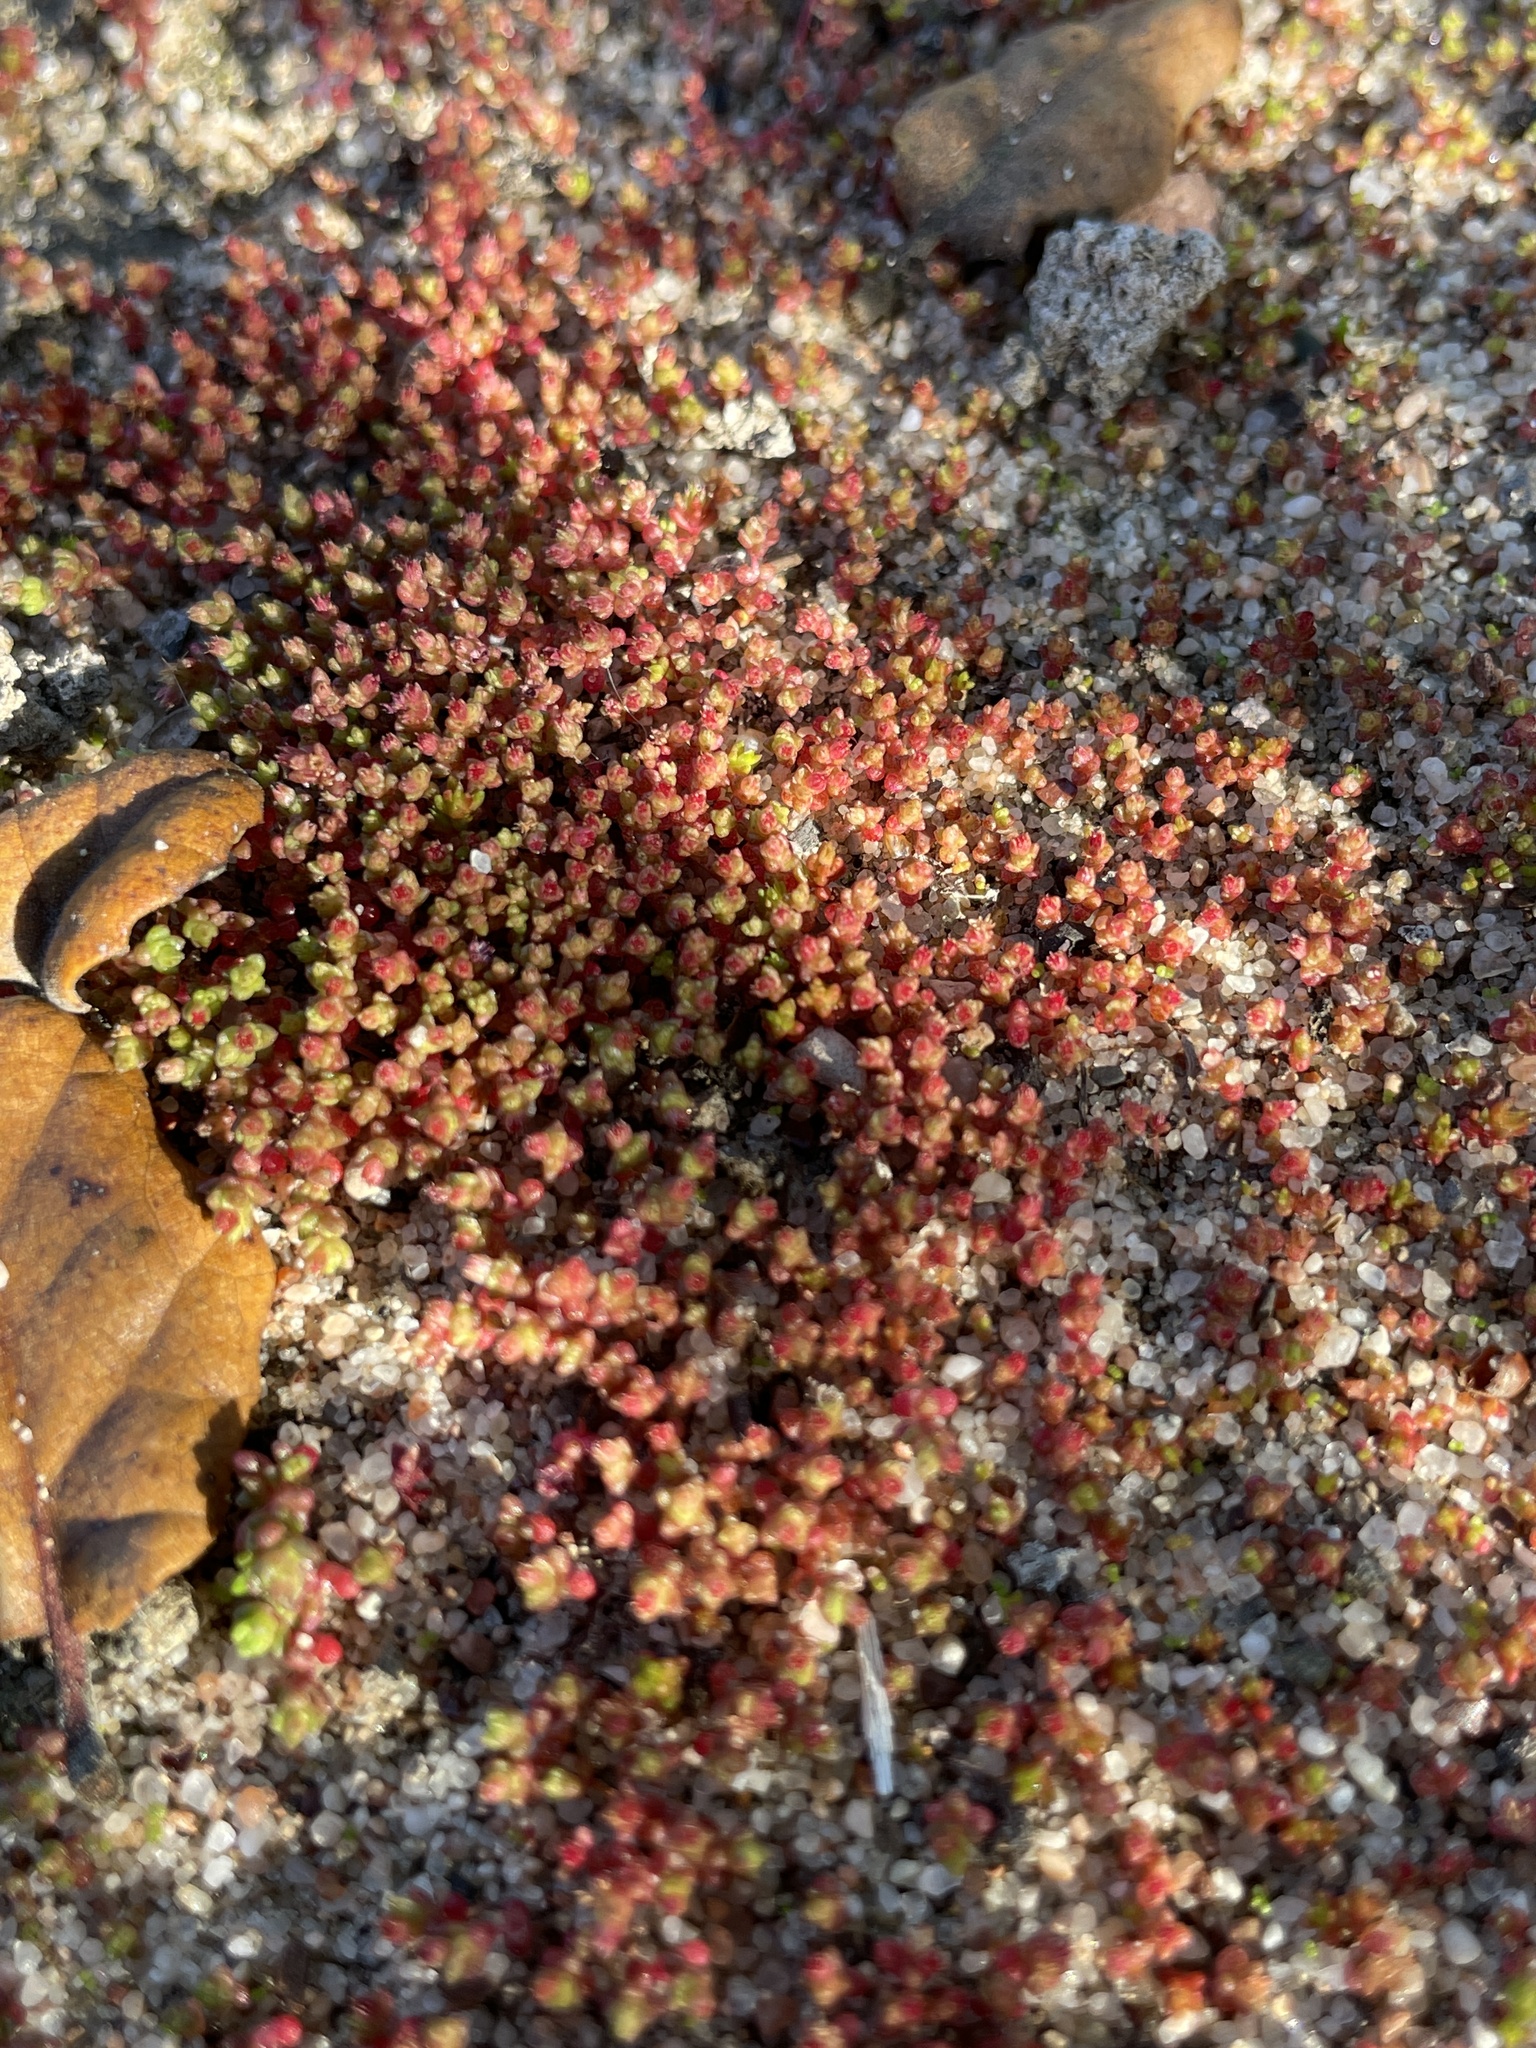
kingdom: Plantae
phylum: Tracheophyta
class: Magnoliopsida
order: Saxifragales
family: Crassulaceae
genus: Crassula
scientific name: Crassula connata
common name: Erect pygmyweed
